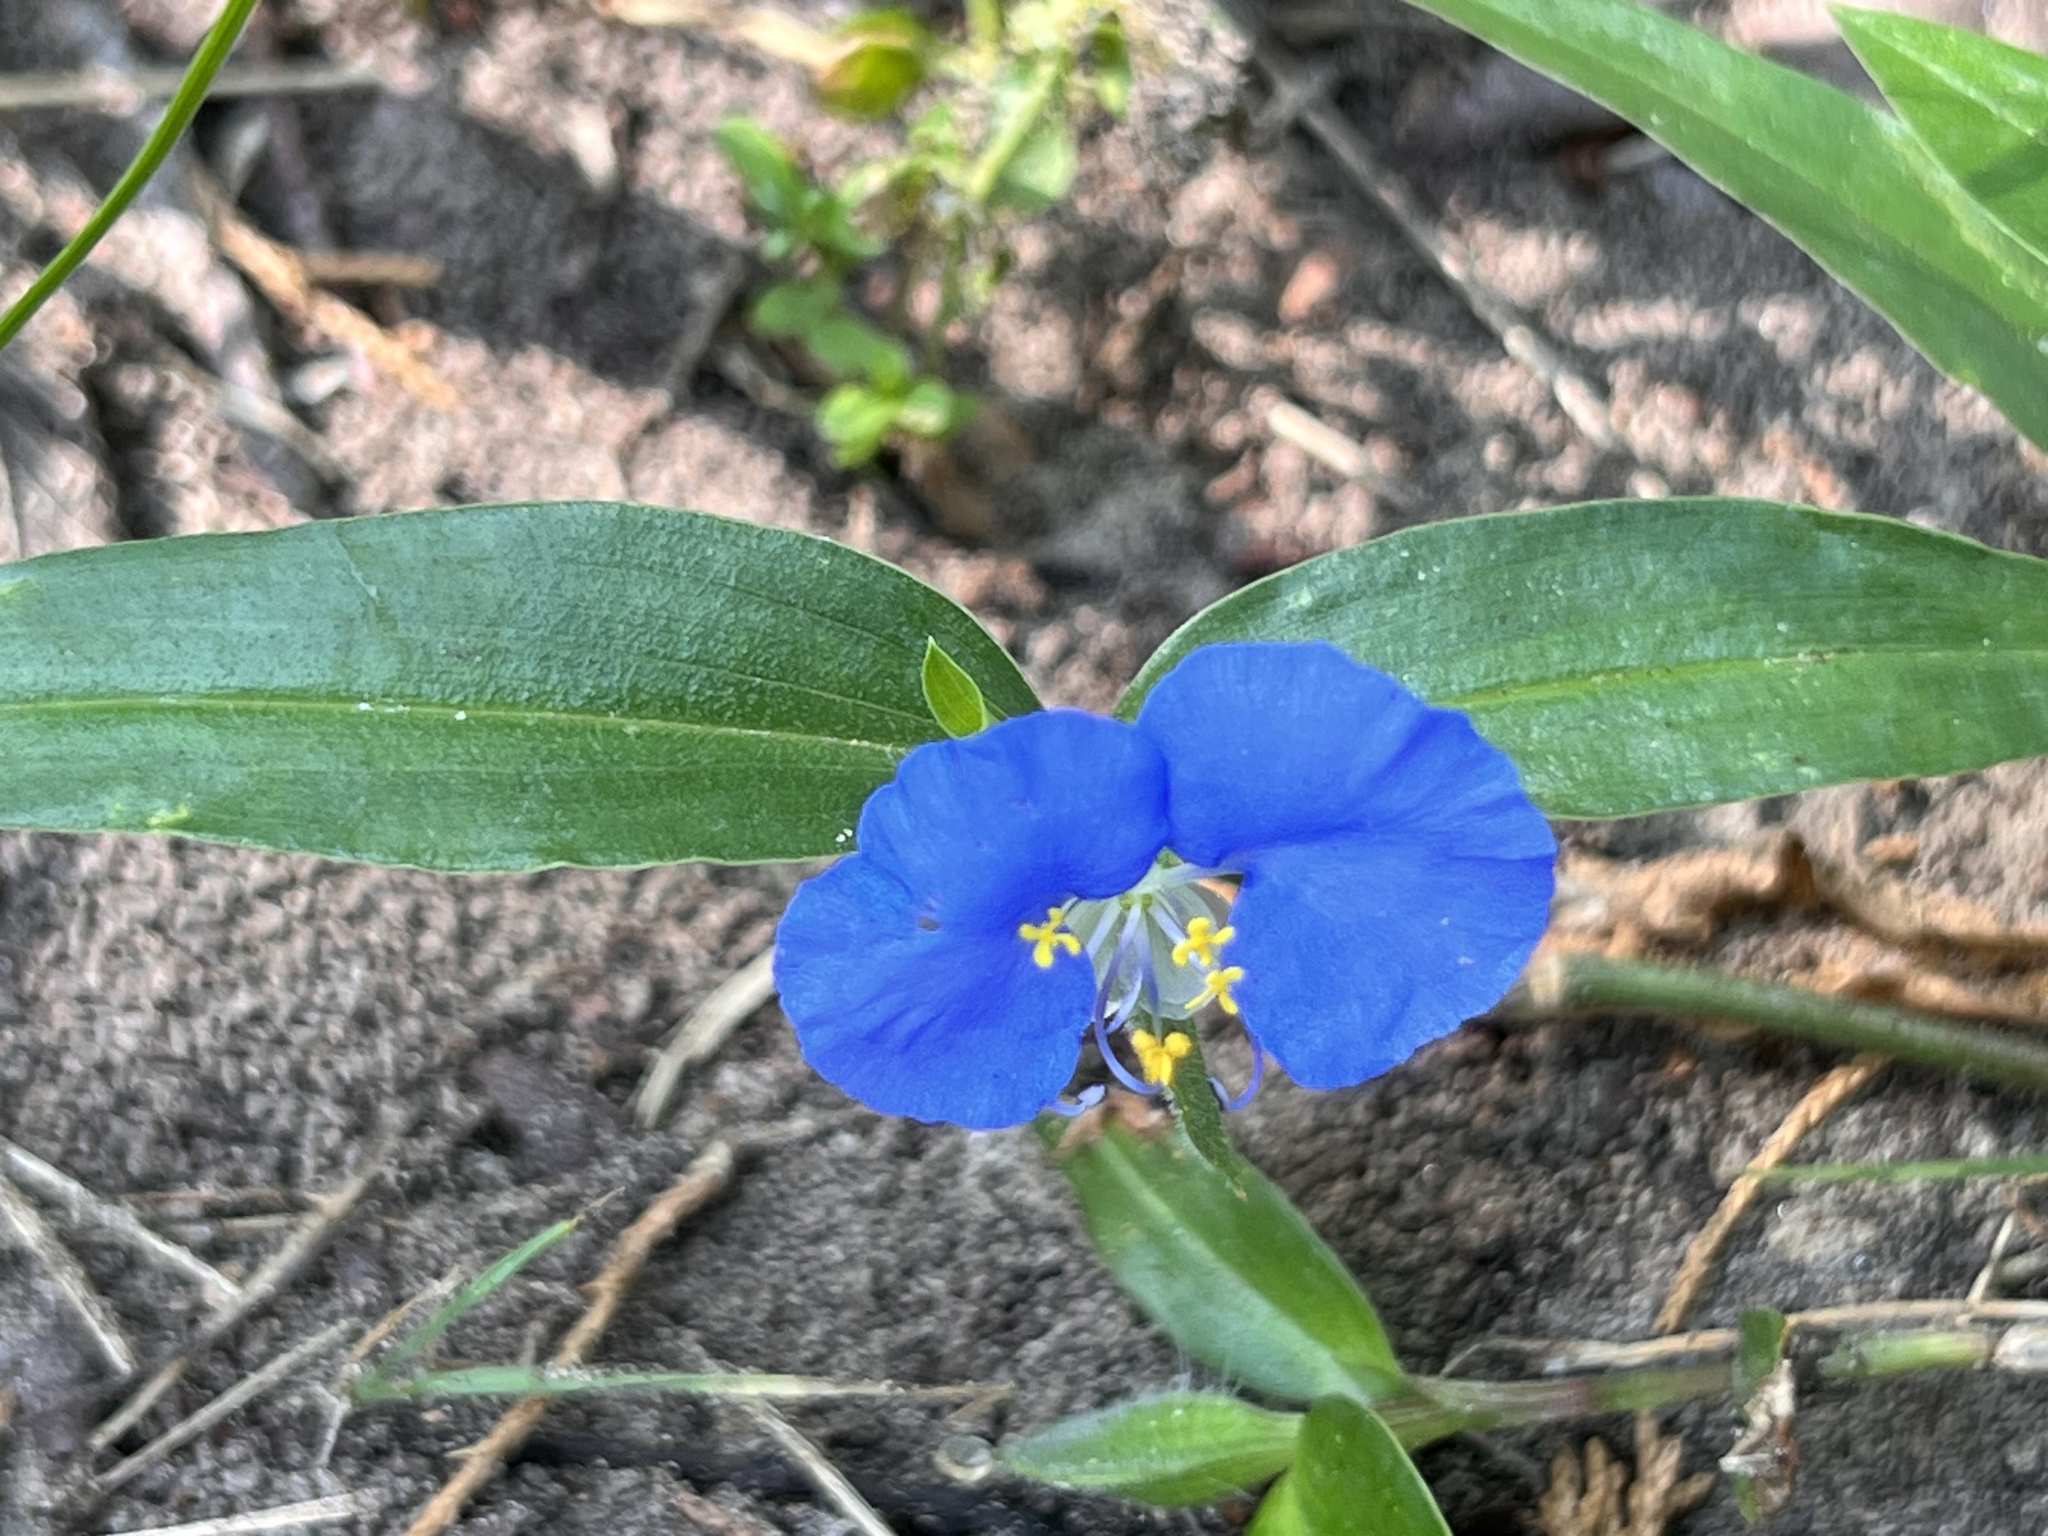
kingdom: Plantae
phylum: Tracheophyta
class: Liliopsida
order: Commelinales
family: Commelinaceae
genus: Commelina
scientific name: Commelina erecta
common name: Blousel blommetjie
